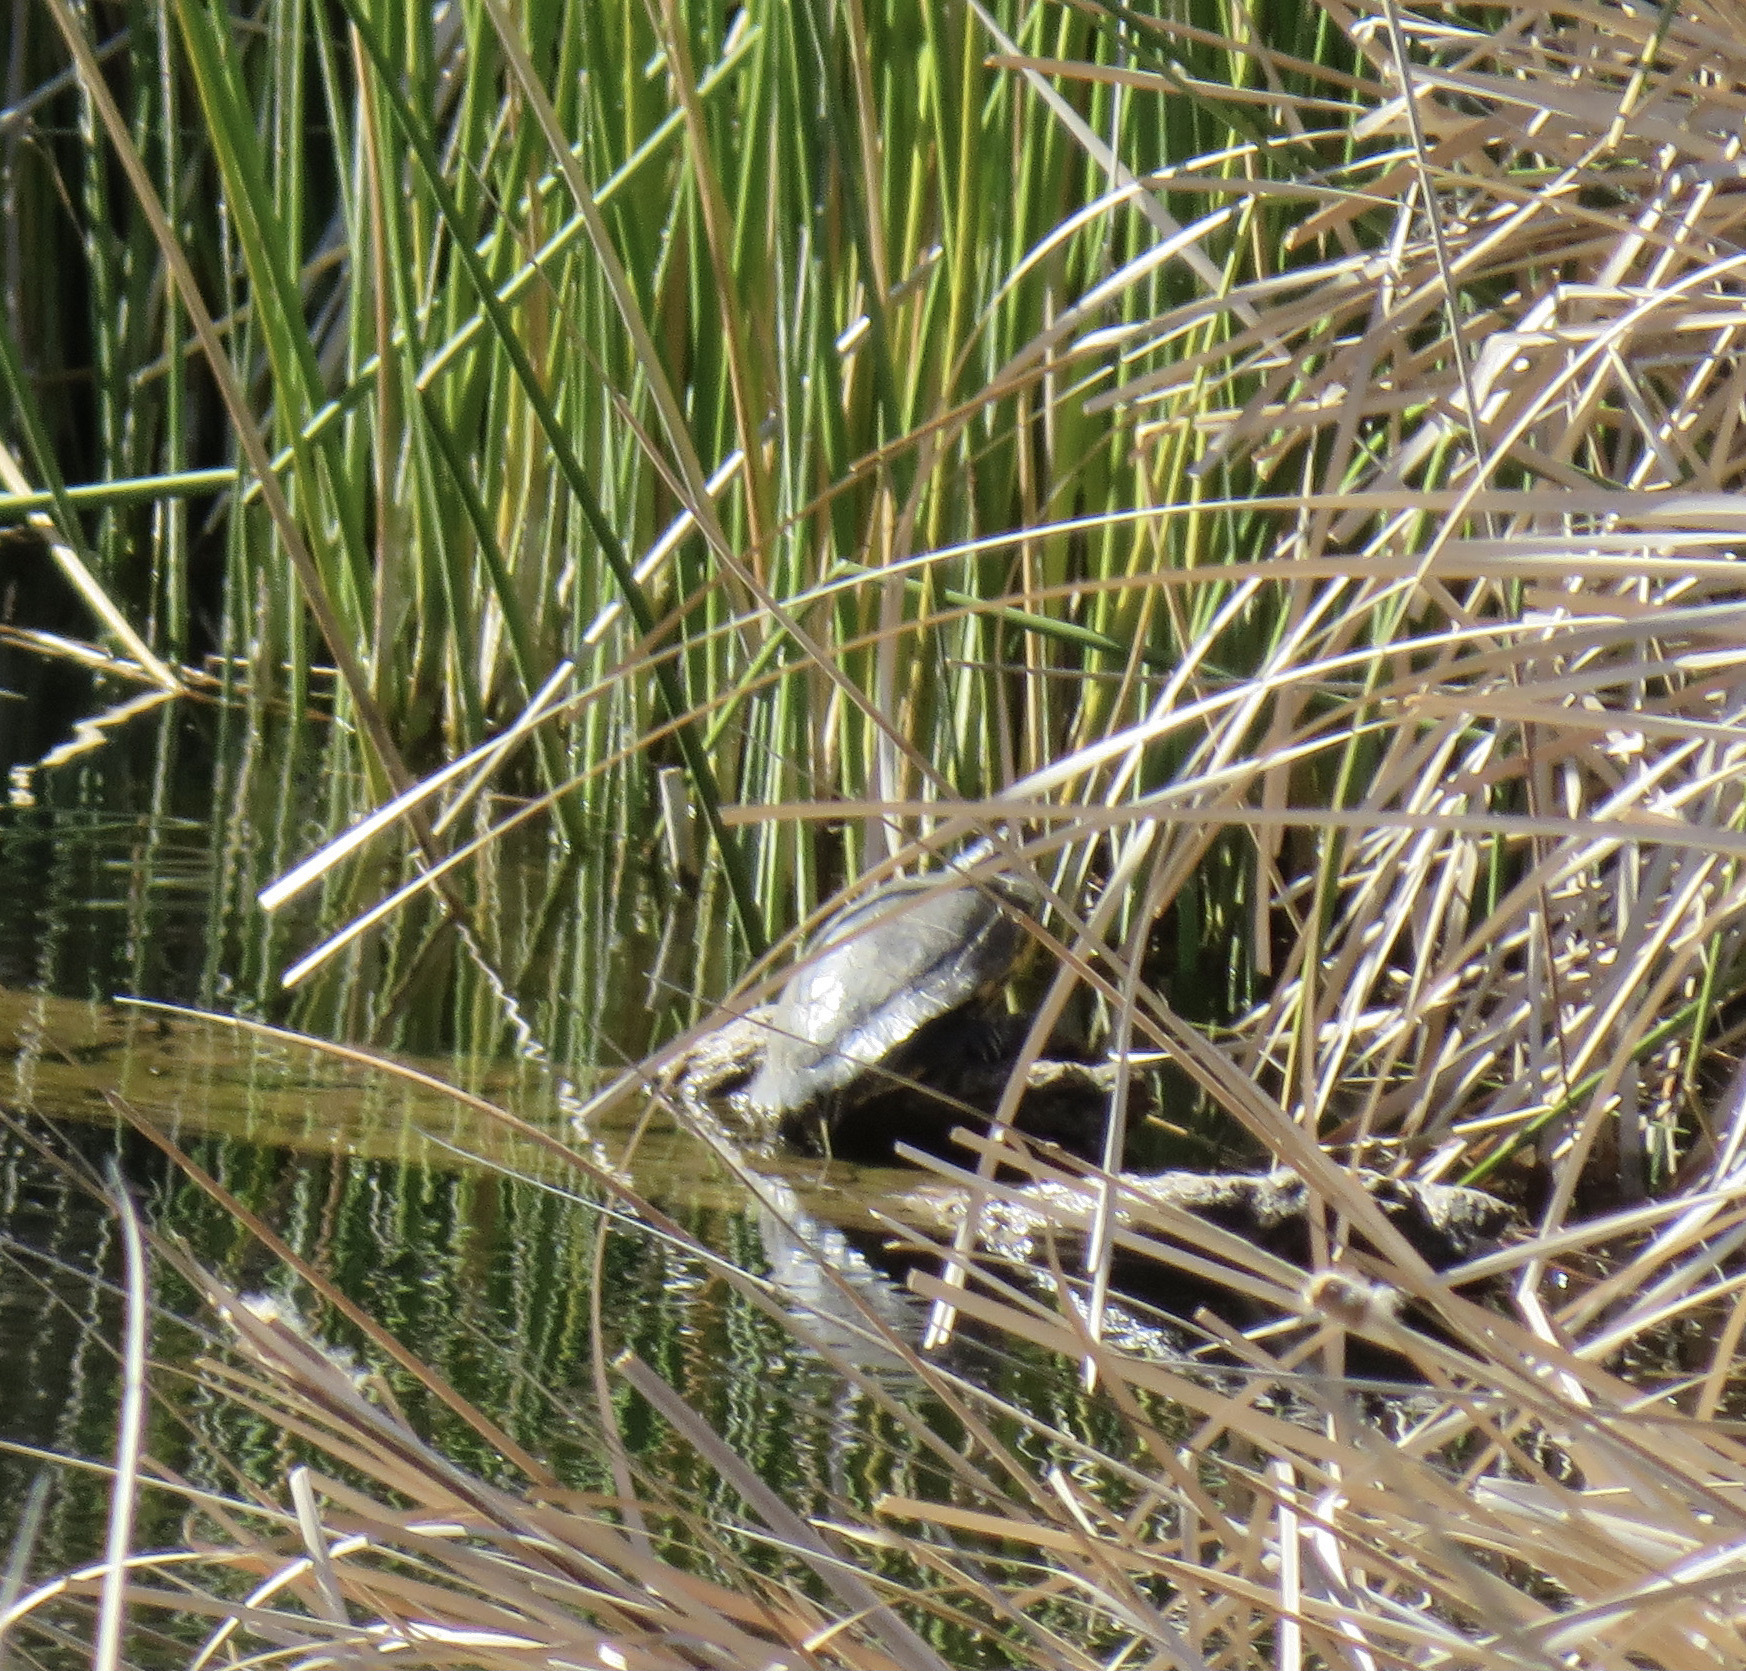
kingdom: Animalia
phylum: Chordata
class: Testudines
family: Emydidae
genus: Trachemys
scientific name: Trachemys scripta
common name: Slider
